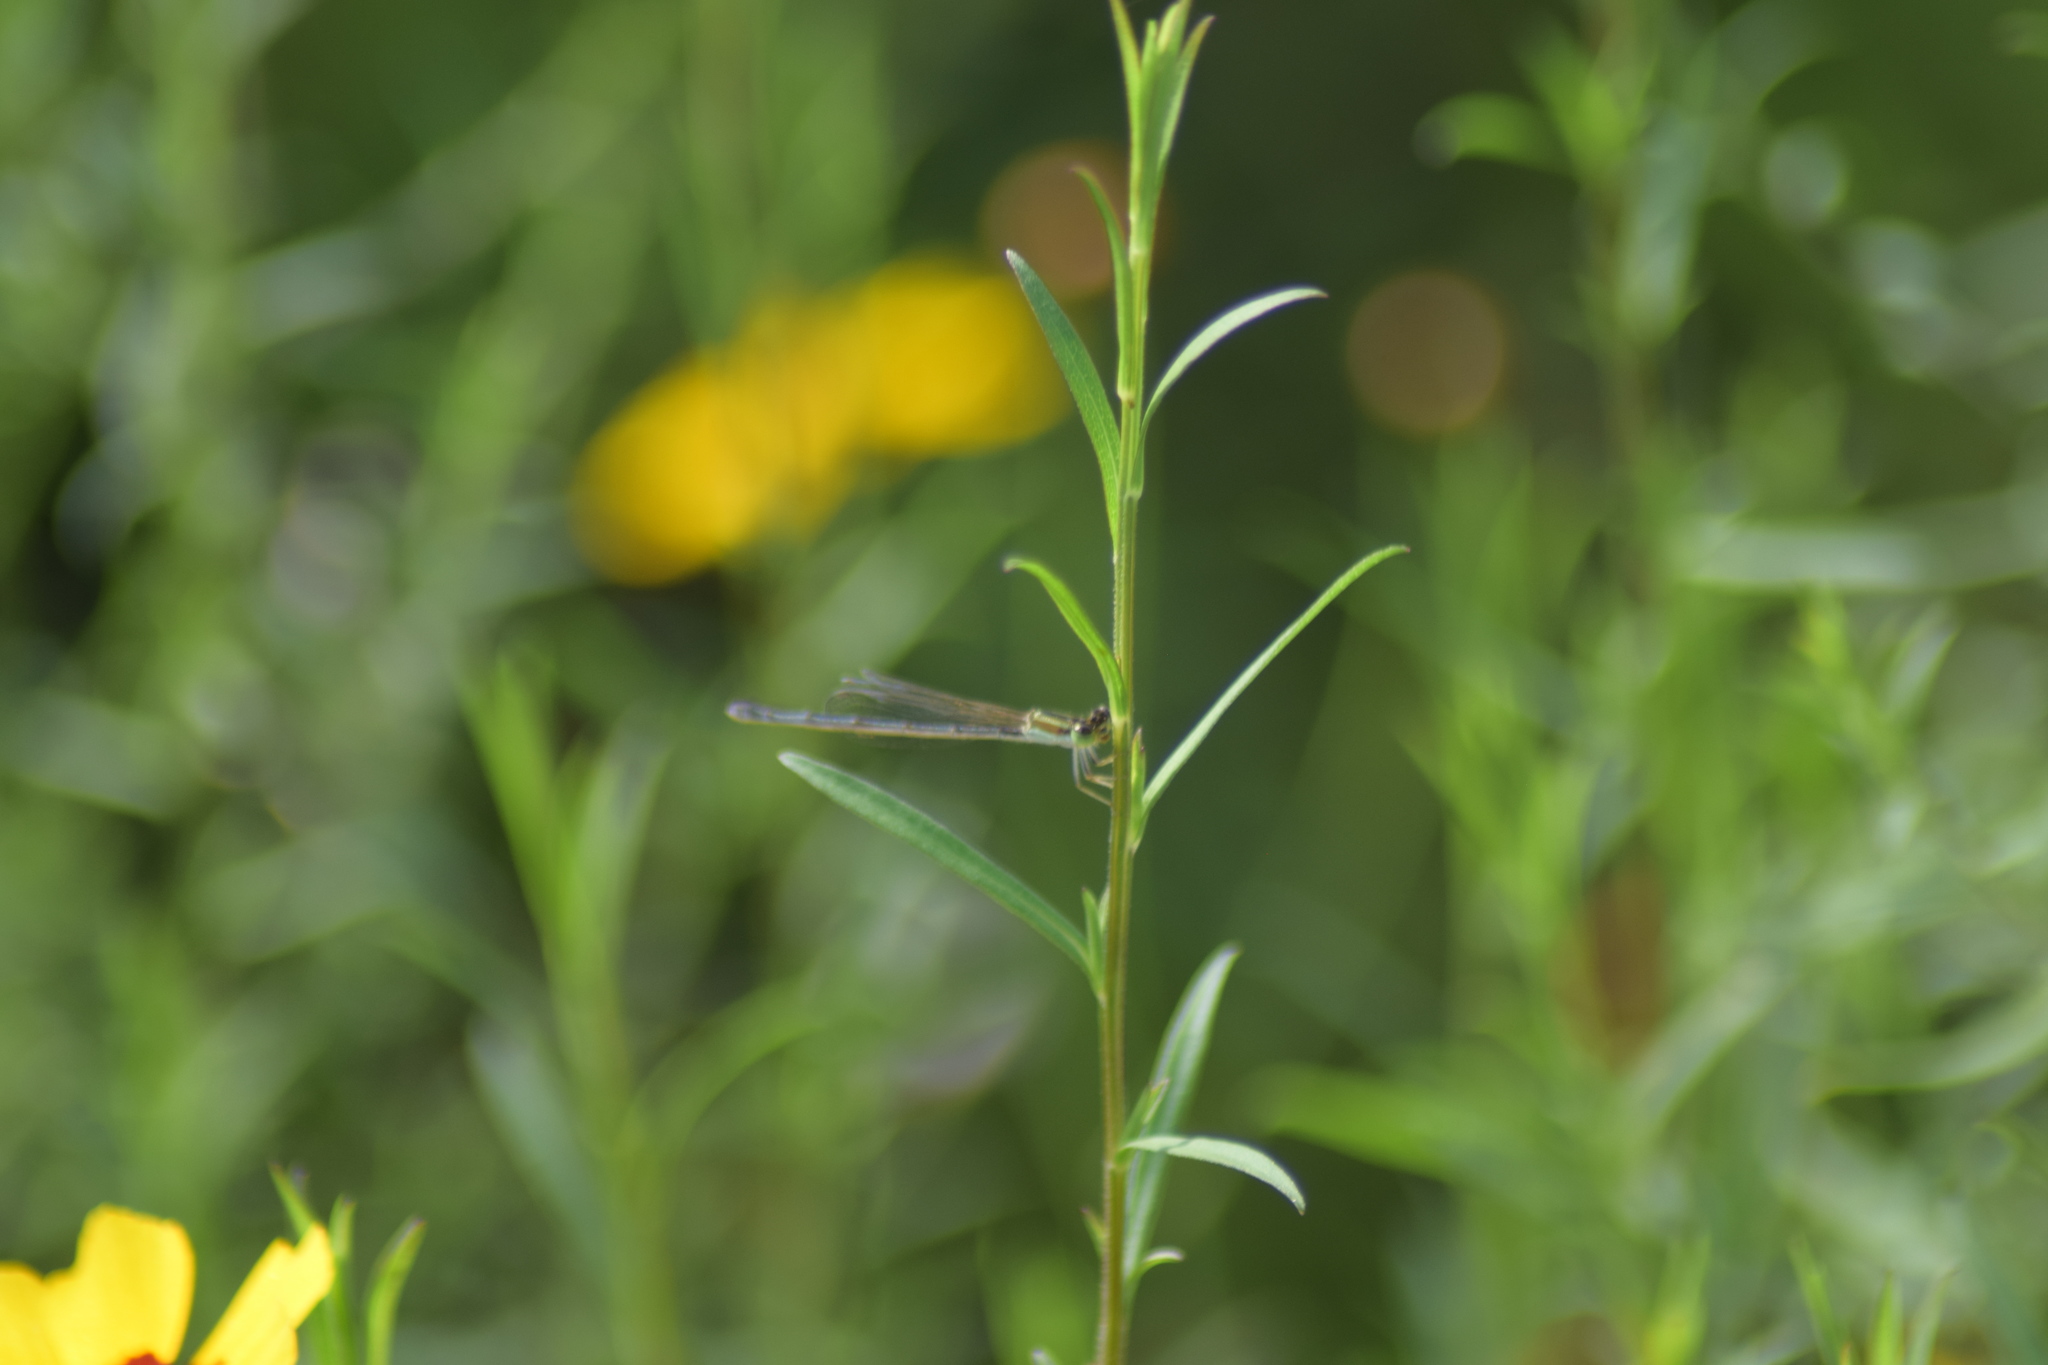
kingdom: Animalia
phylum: Arthropoda
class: Insecta
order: Odonata
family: Coenagrionidae
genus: Ischnura
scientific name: Ischnura hastata
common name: Citrine forktail
